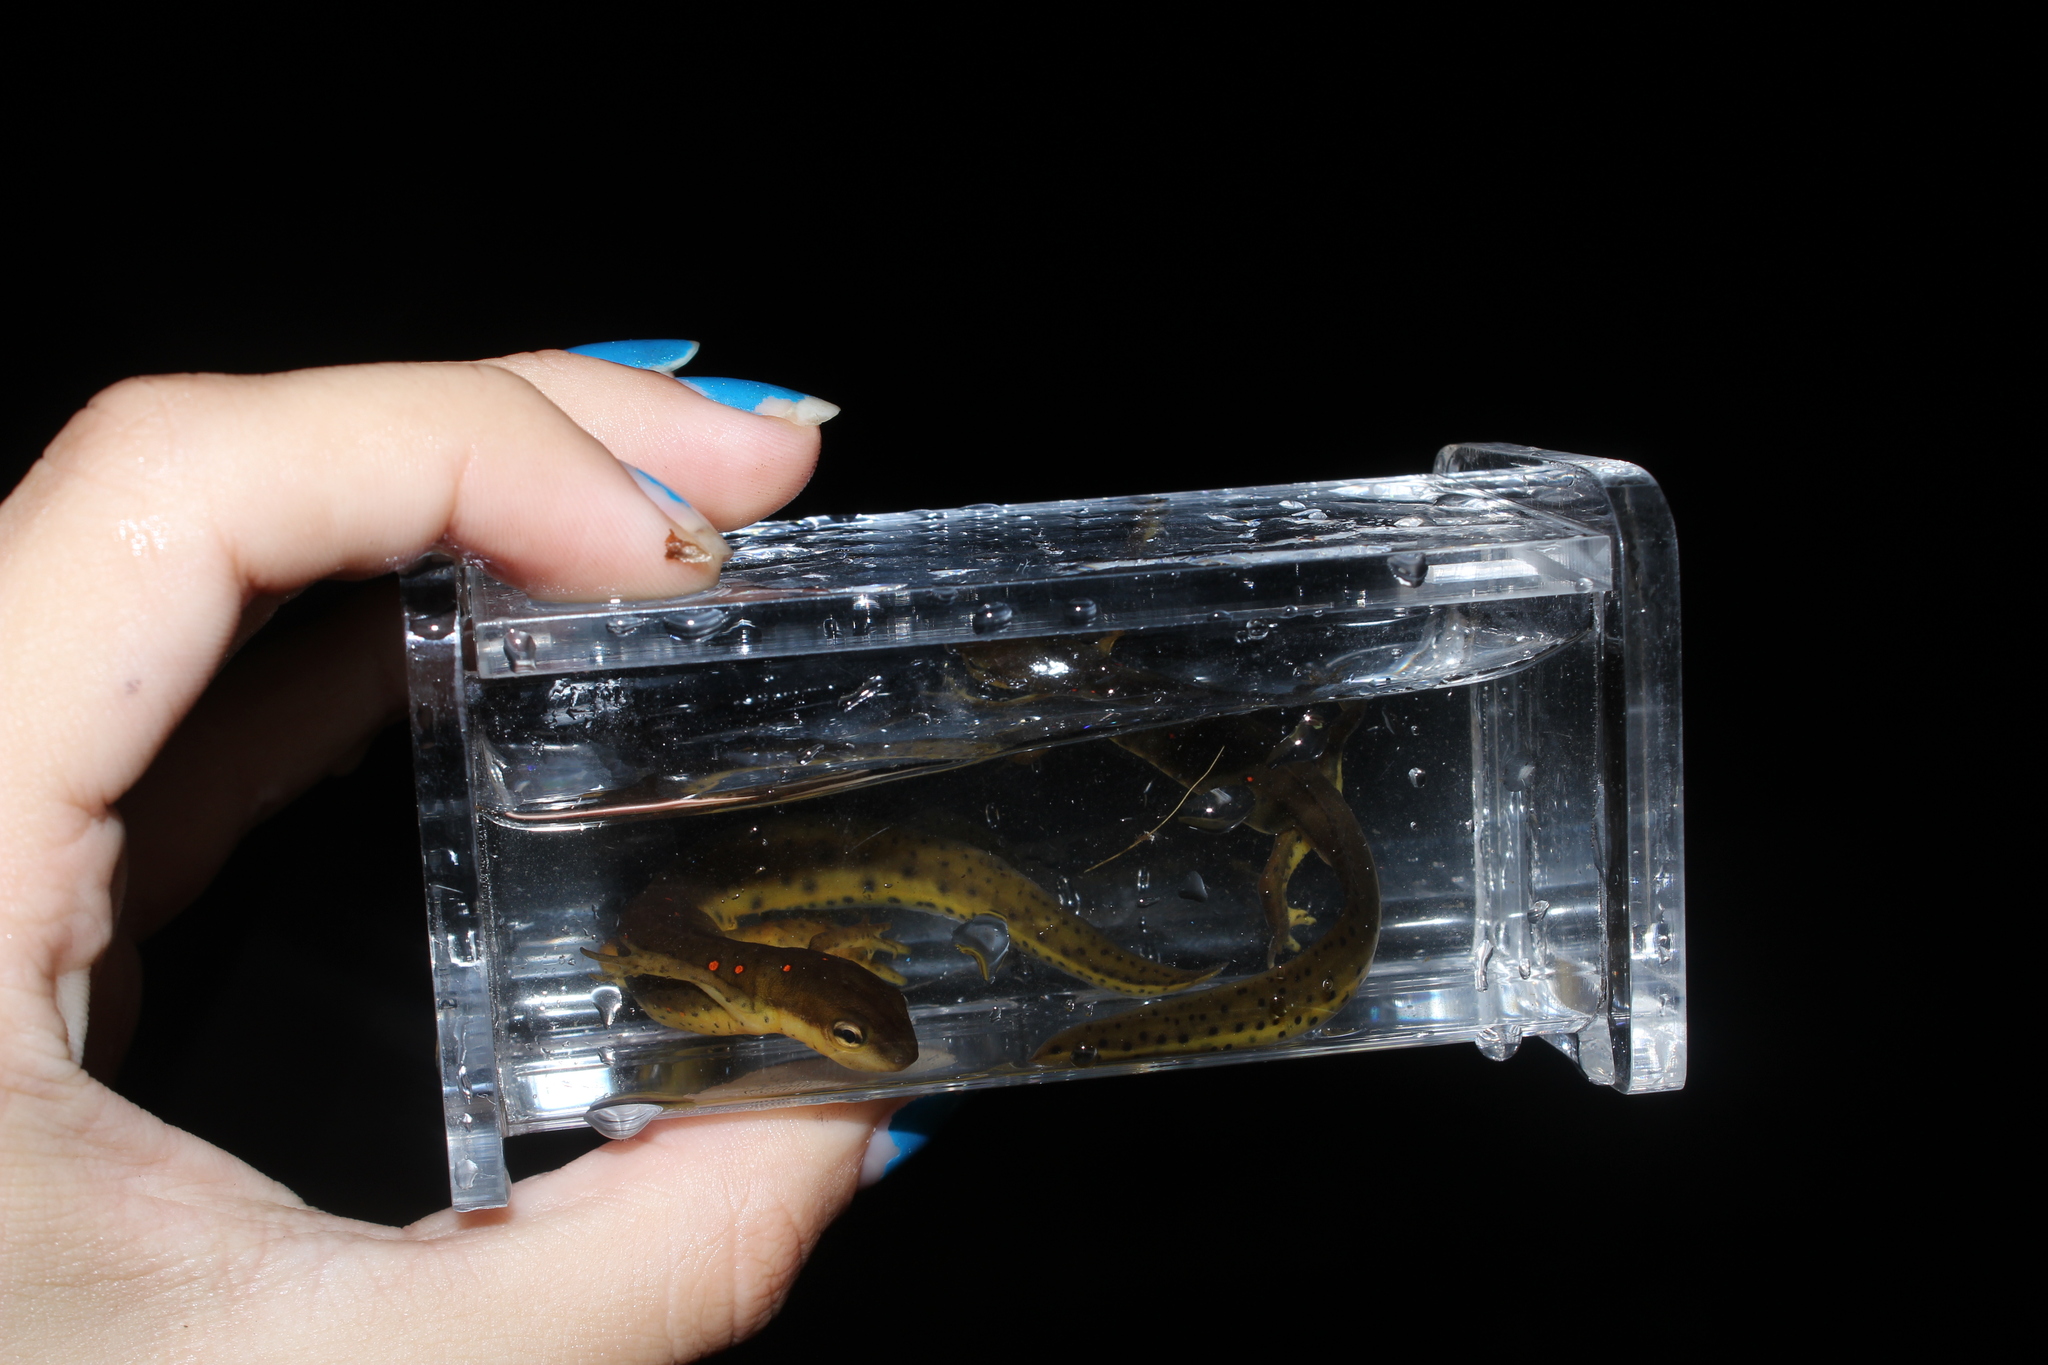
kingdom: Animalia
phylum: Chordata
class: Amphibia
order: Caudata
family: Salamandridae
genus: Notophthalmus
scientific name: Notophthalmus viridescens
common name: Eastern newt
